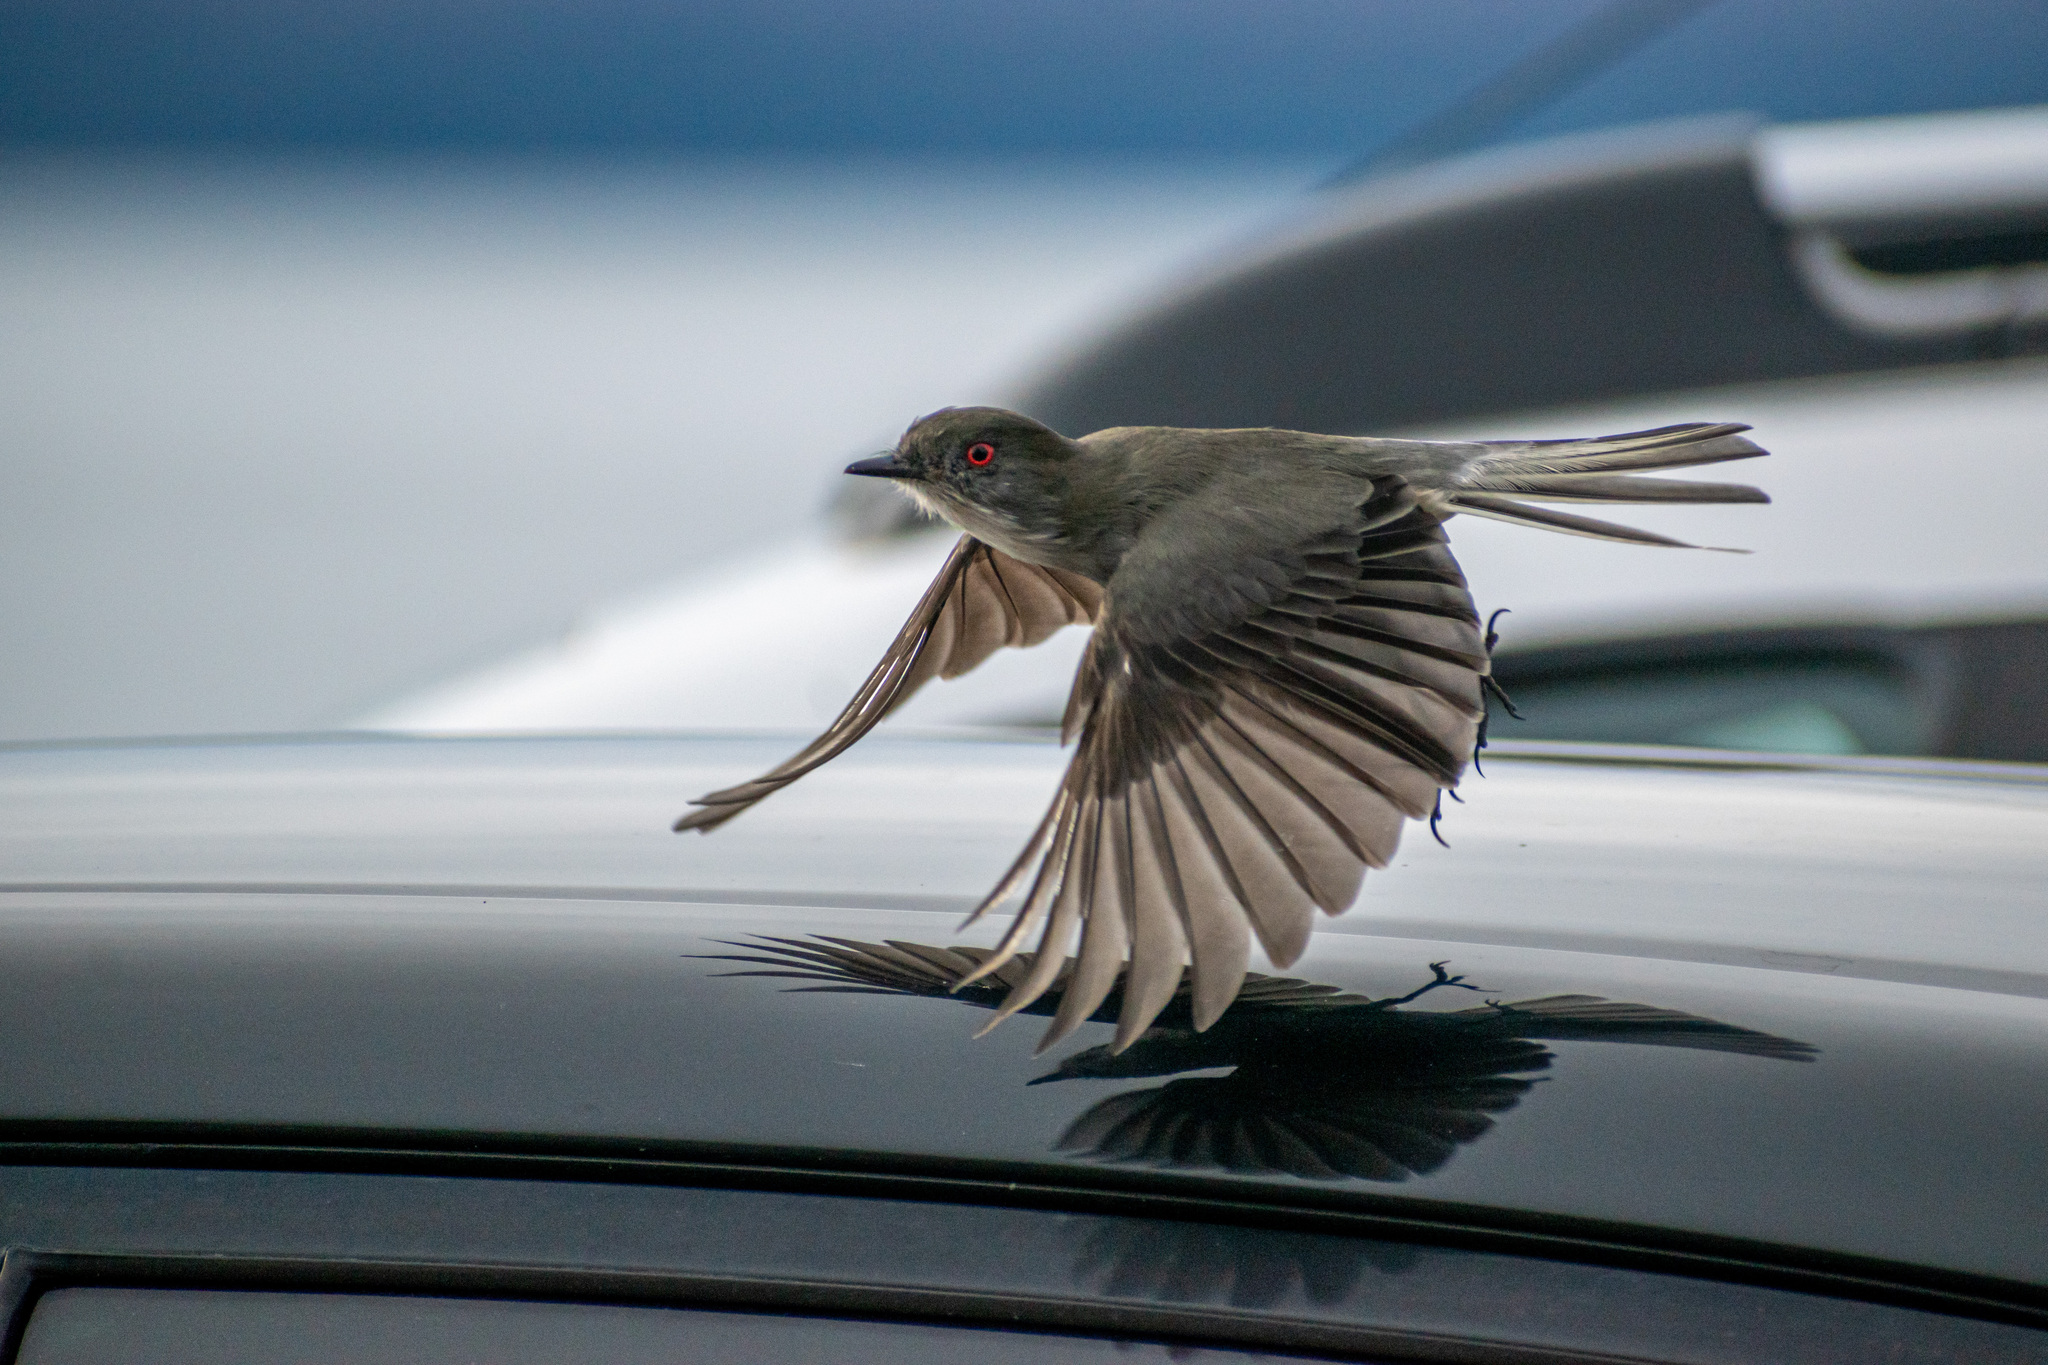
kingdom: Animalia
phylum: Chordata
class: Aves
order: Passeriformes
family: Tyrannidae
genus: Xolmis
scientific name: Xolmis pyrope
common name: Fire-eyed diucon
